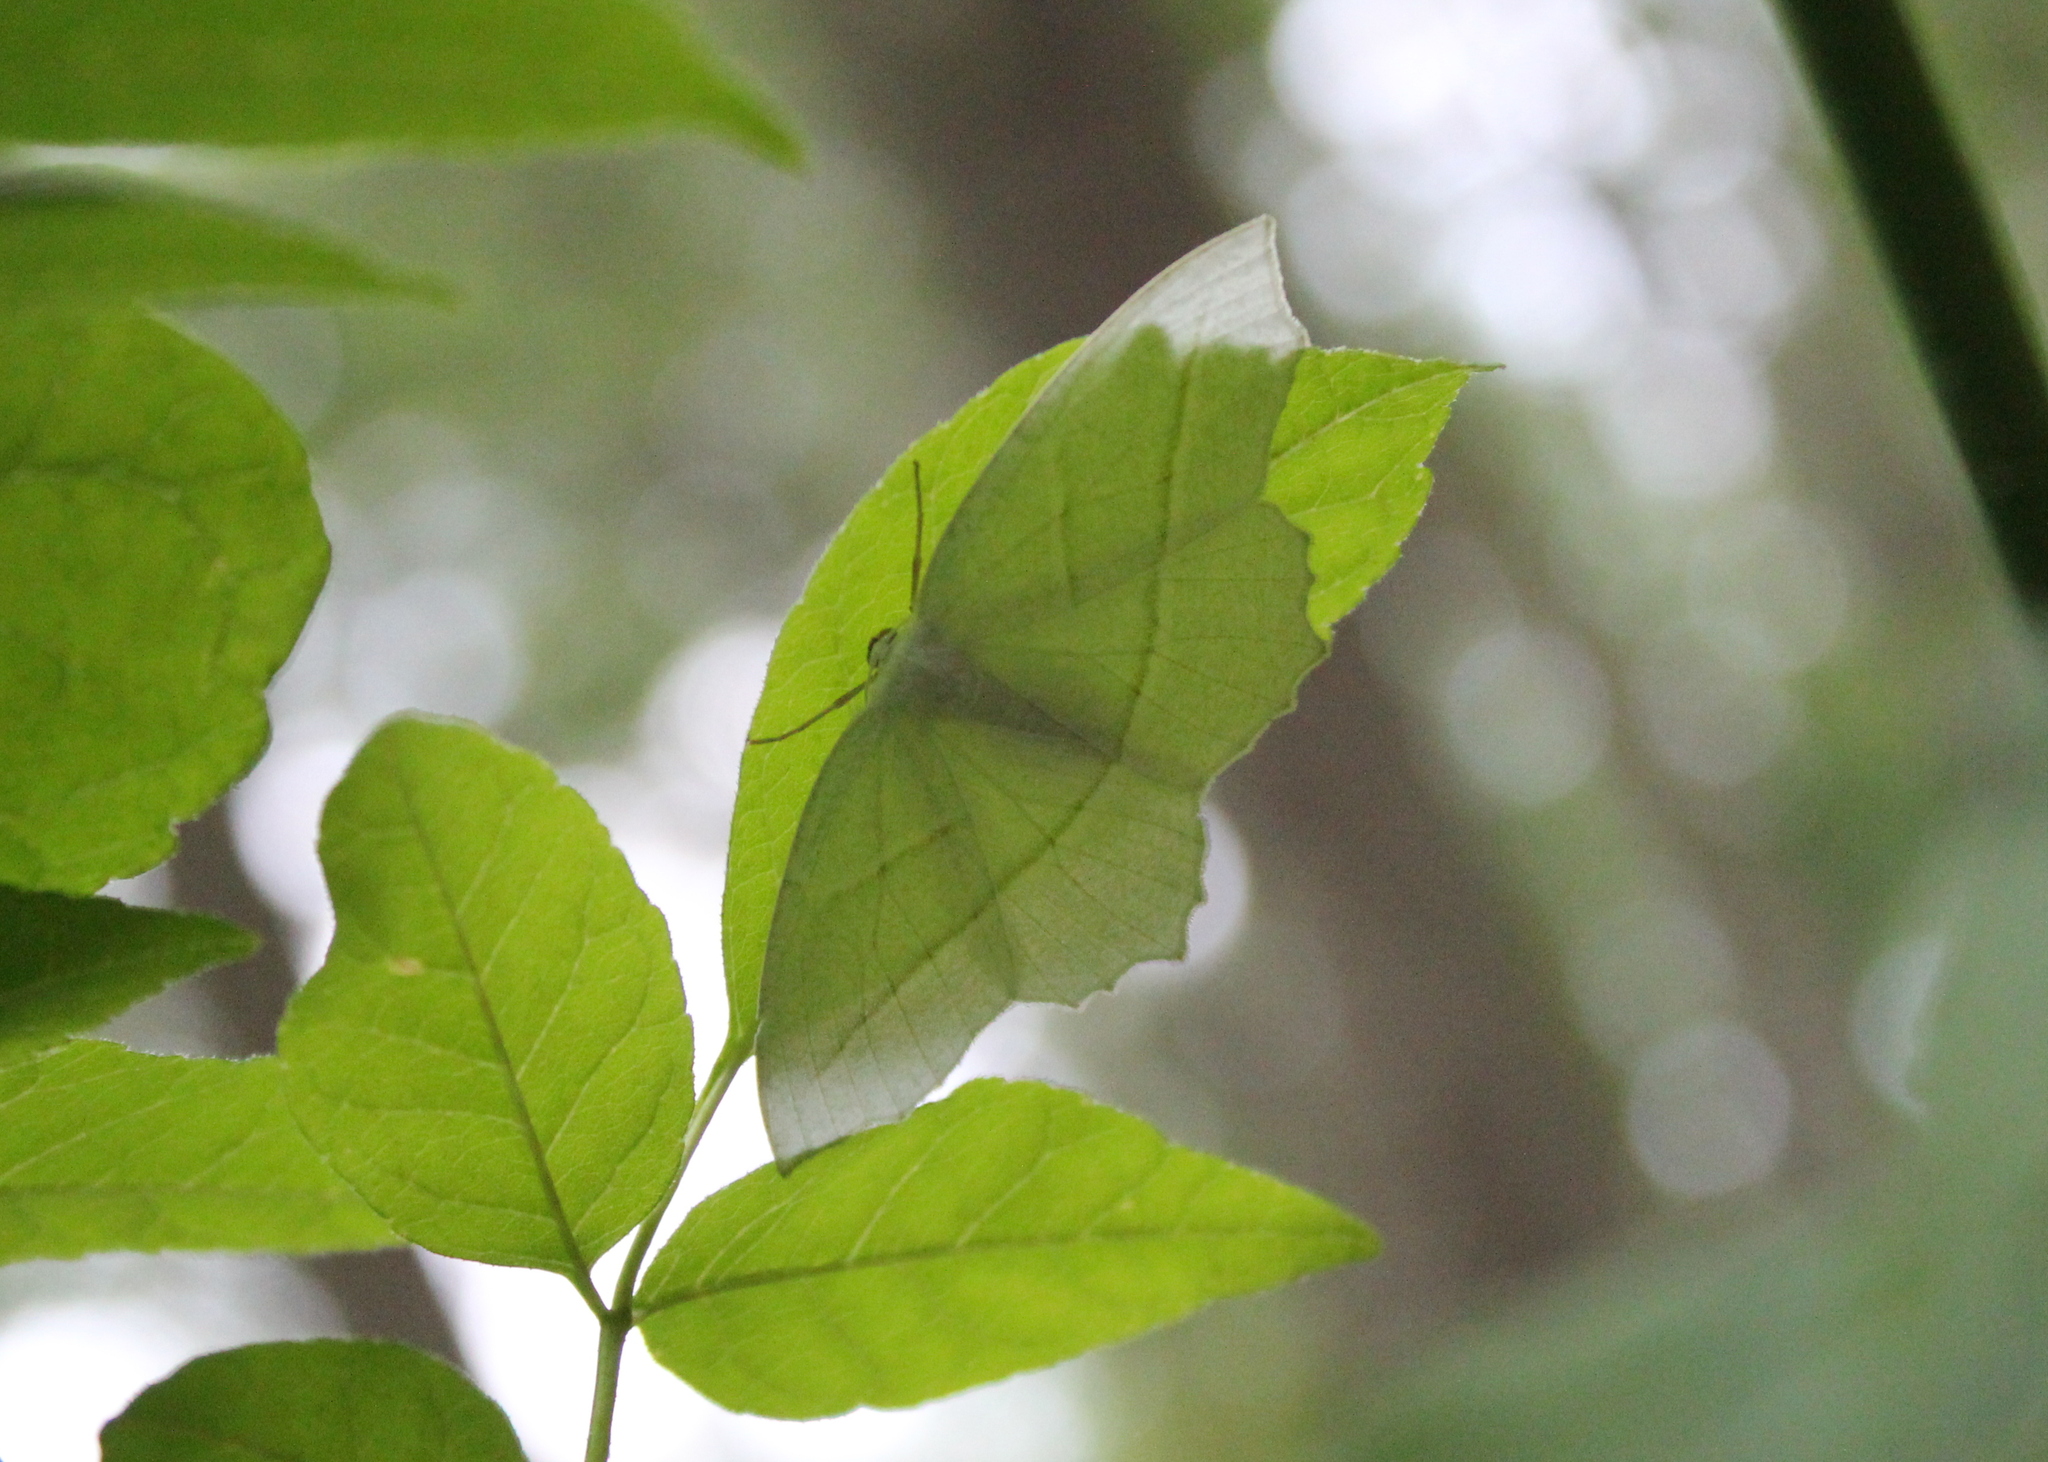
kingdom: Animalia
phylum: Arthropoda
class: Insecta
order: Lepidoptera
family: Geometridae
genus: Campaea
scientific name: Campaea perlata
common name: Fringed looper
